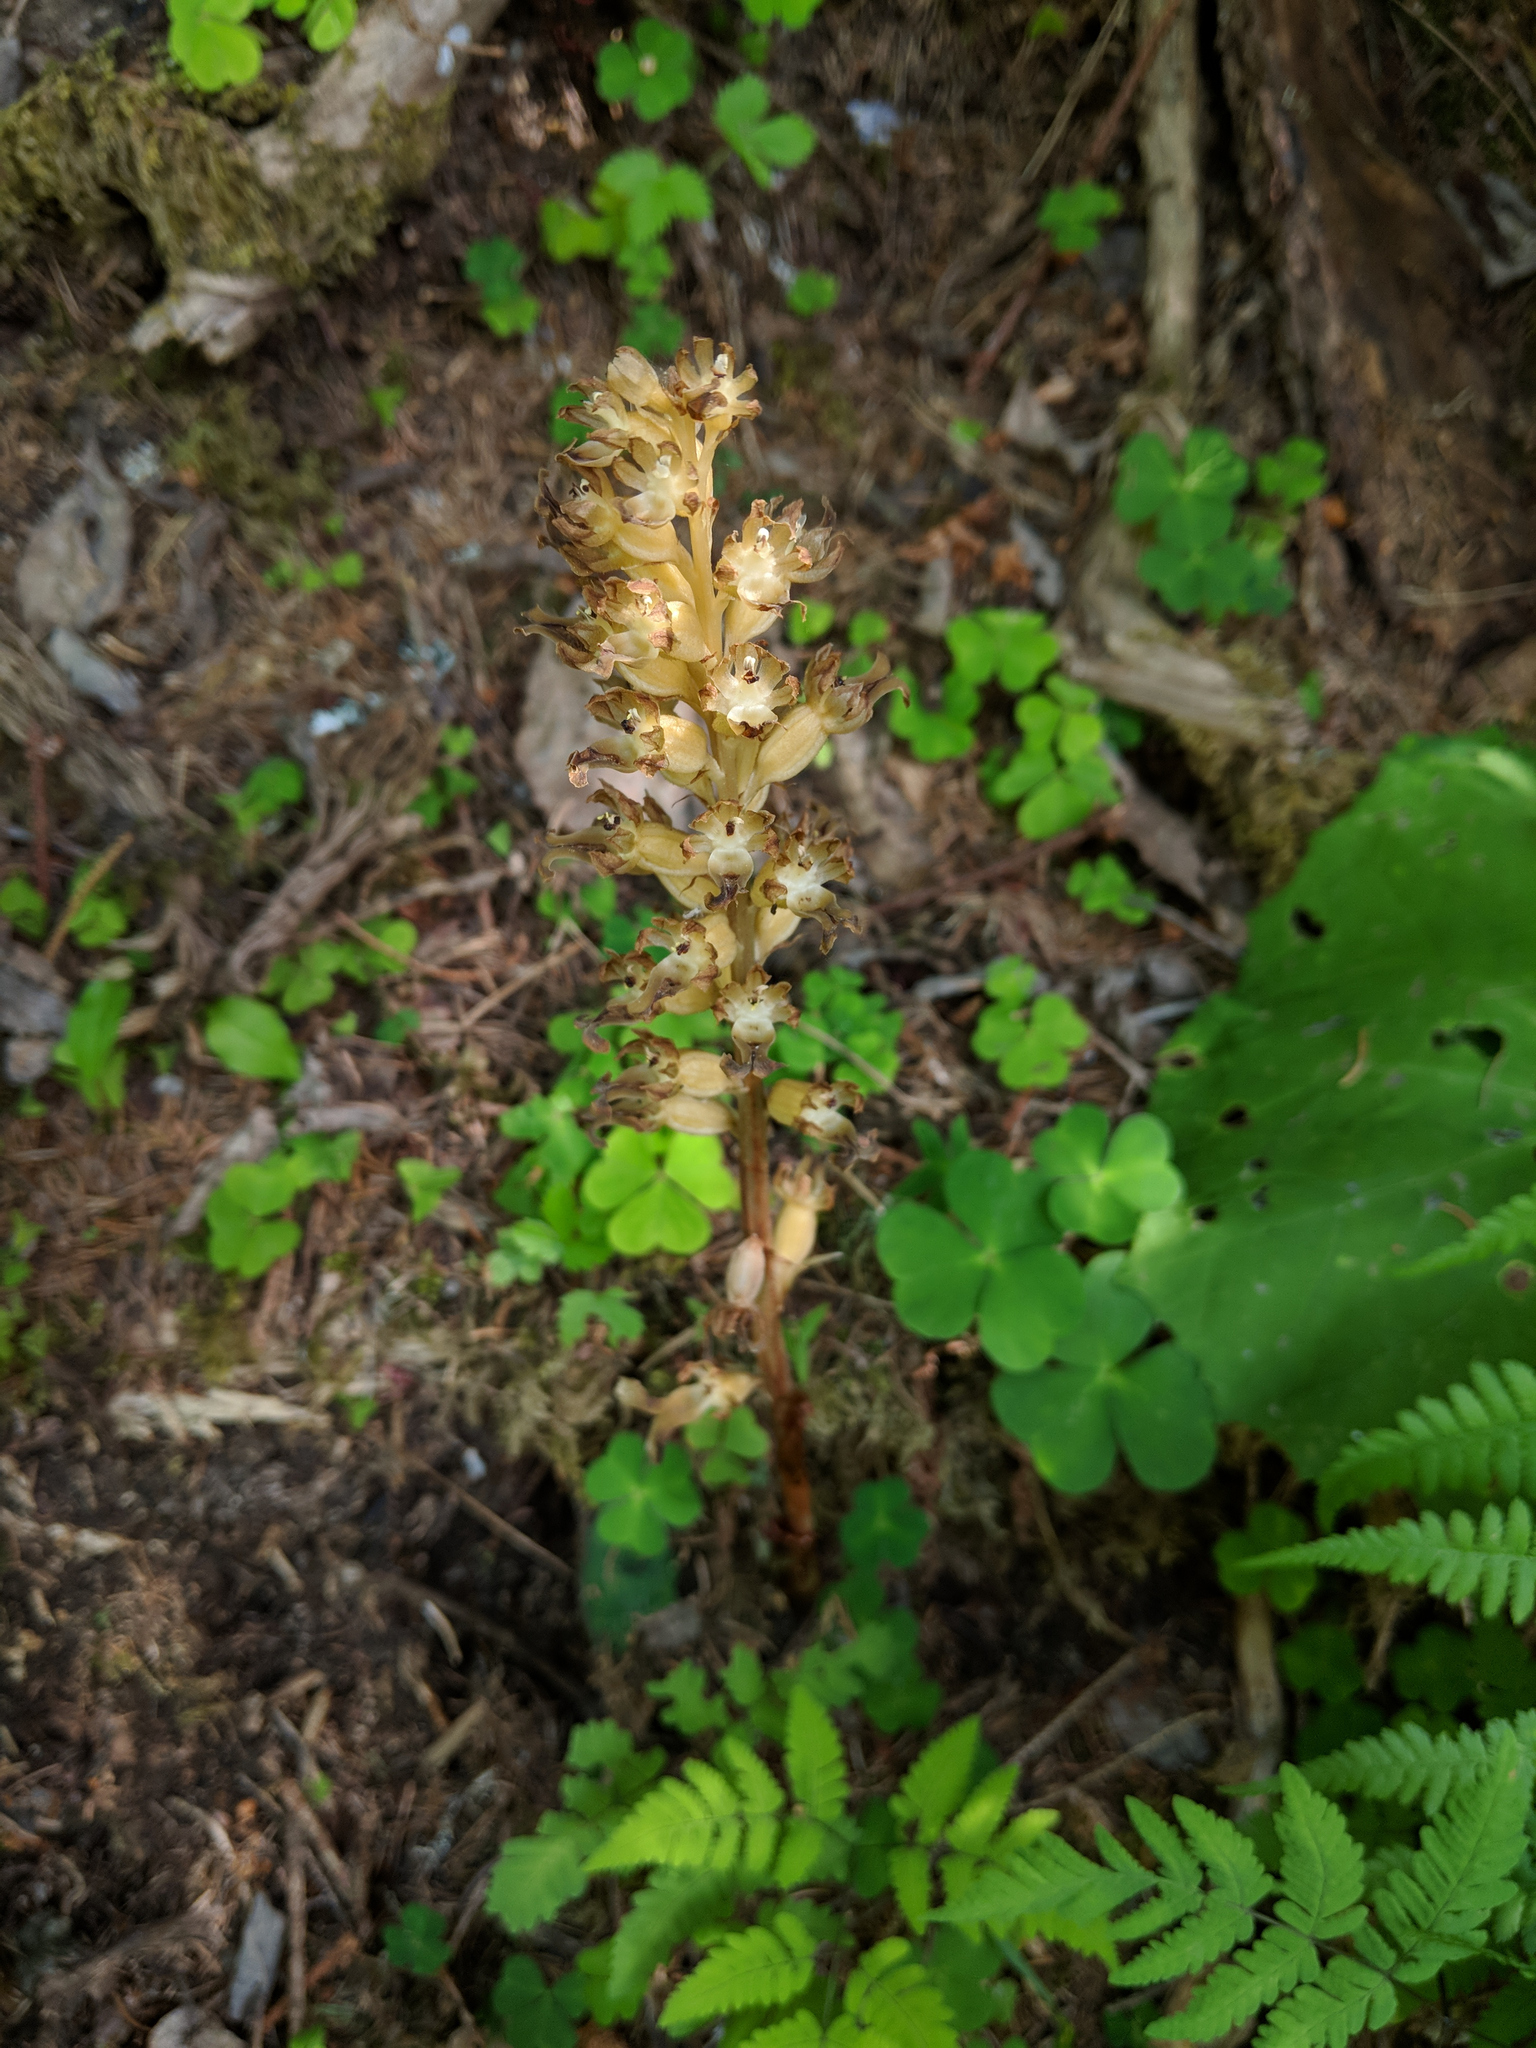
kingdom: Plantae
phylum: Tracheophyta
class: Liliopsida
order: Asparagales
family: Orchidaceae
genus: Neottia
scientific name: Neottia nidus-avis
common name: Bird's-nest orchid
